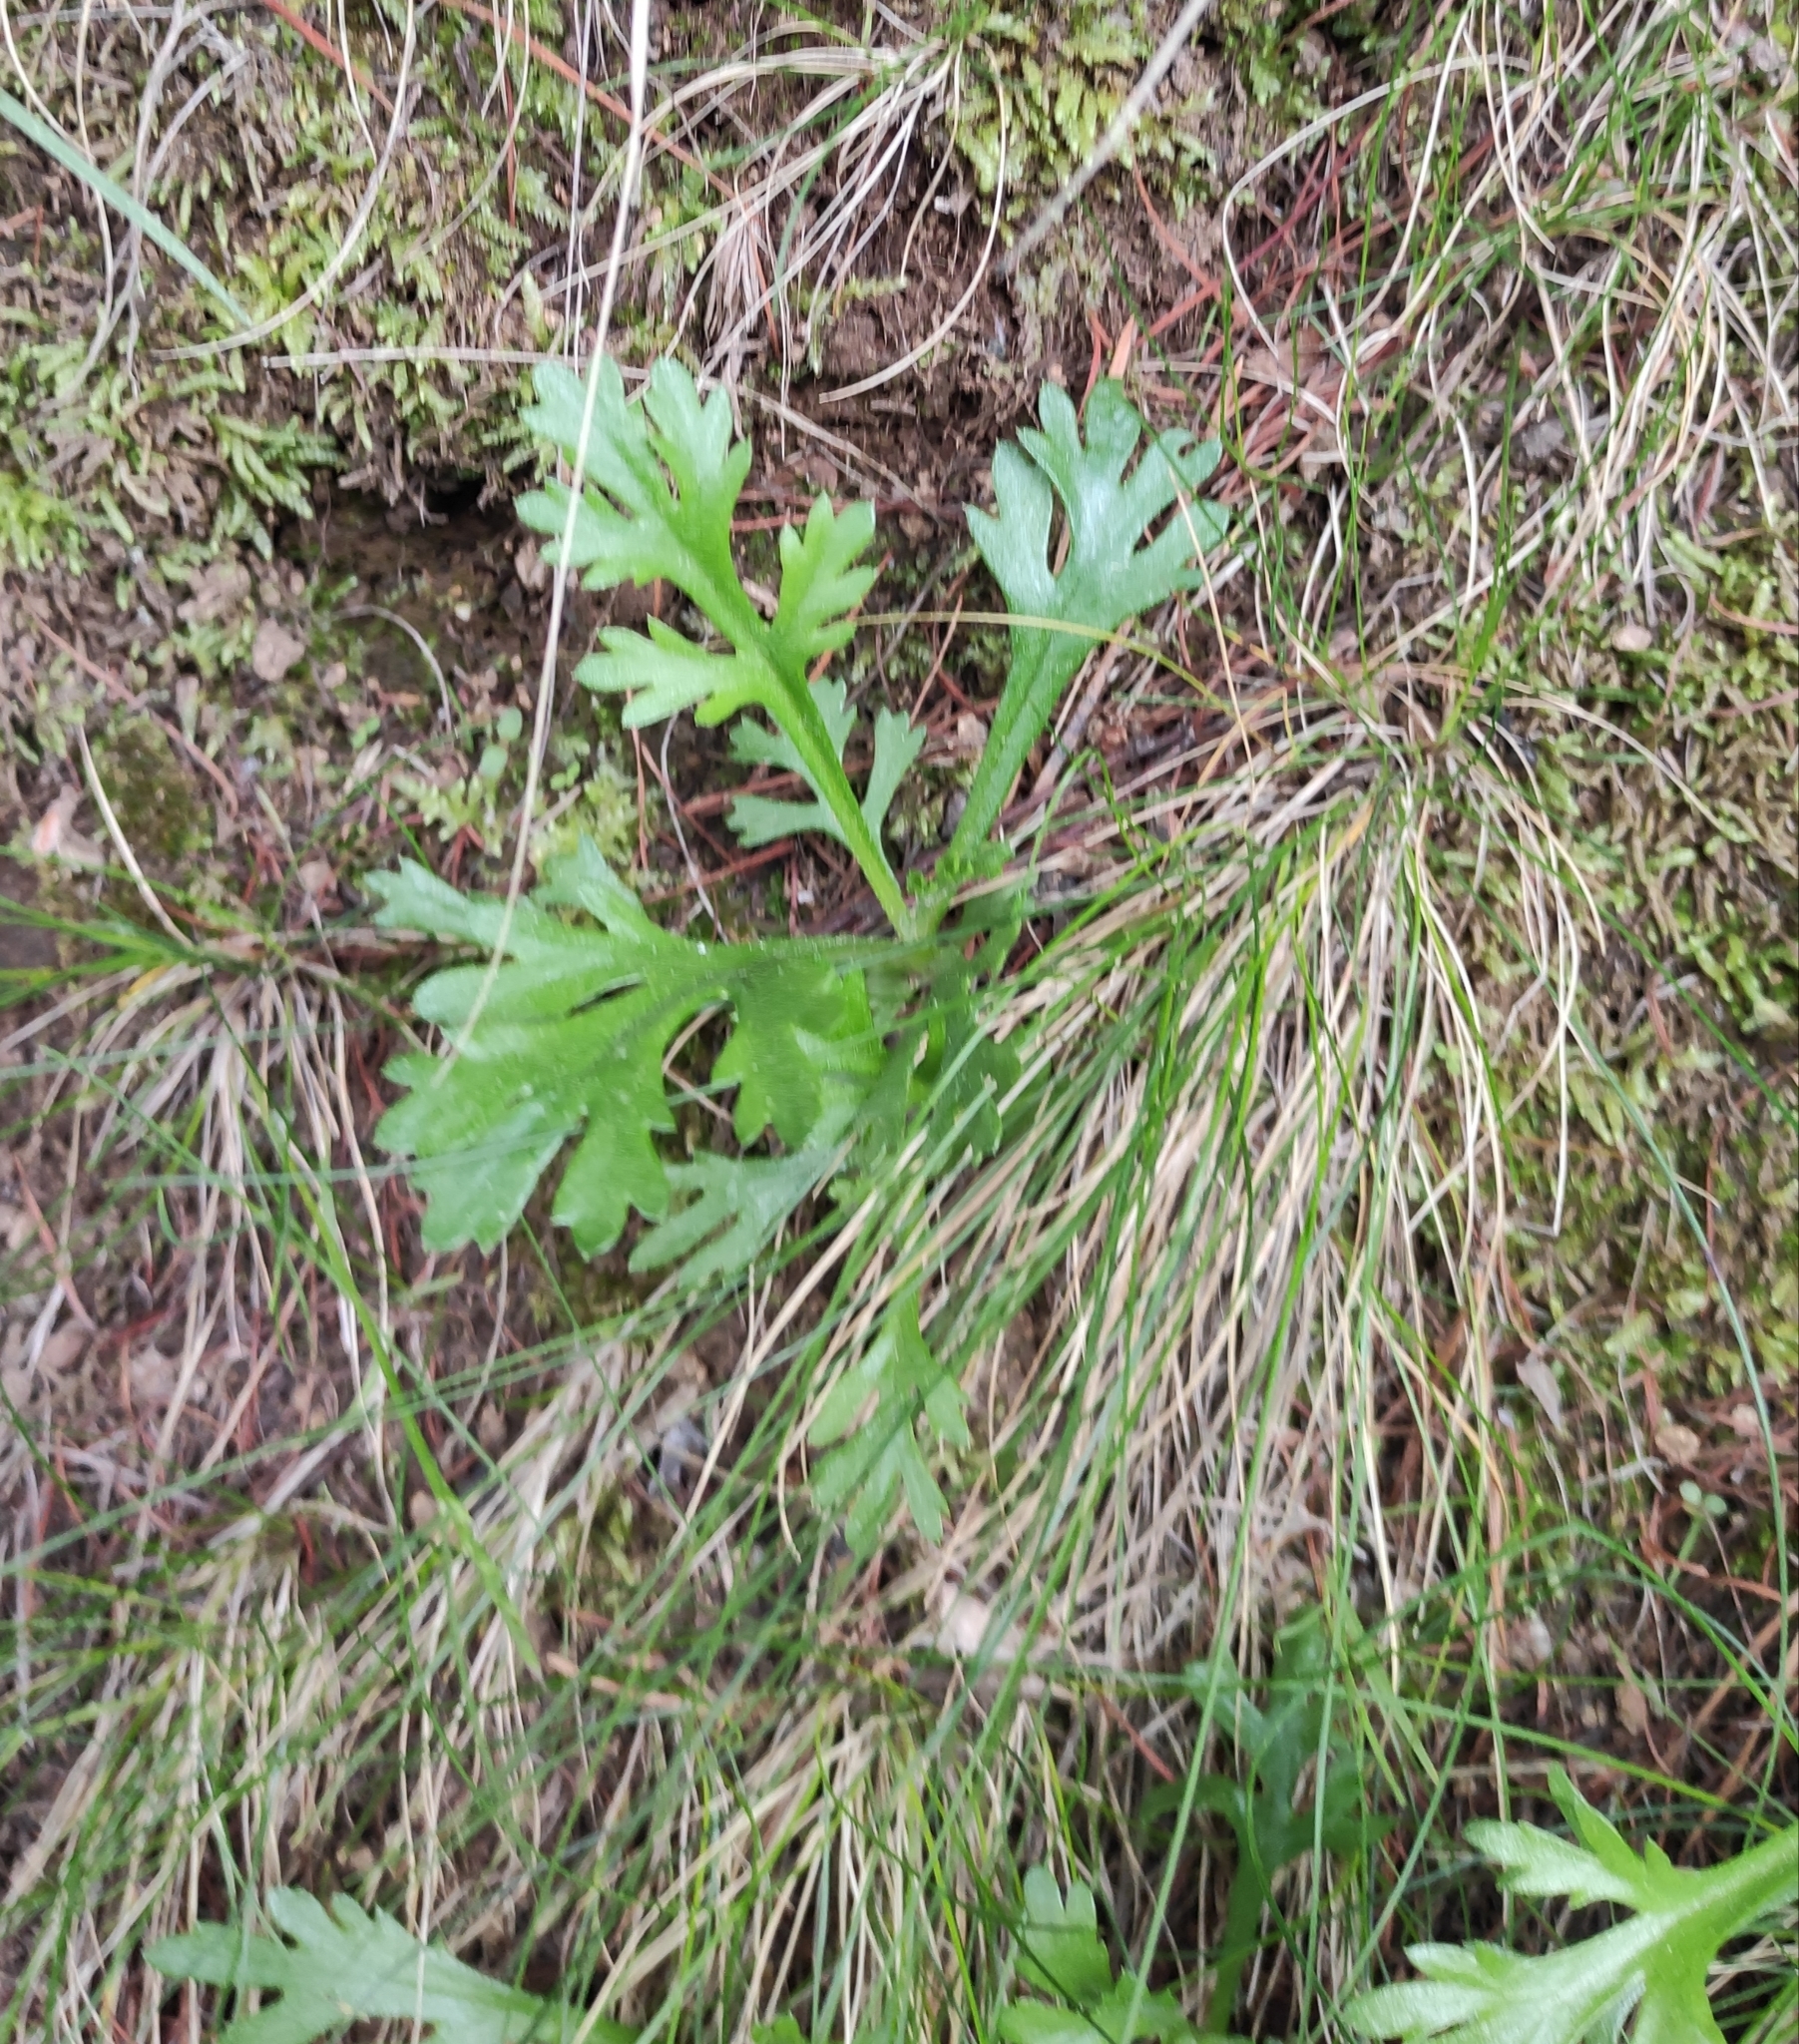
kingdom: Plantae
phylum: Tracheophyta
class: Magnoliopsida
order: Asterales
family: Asteraceae
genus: Chrysanthemum
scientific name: Chrysanthemum zawadzkii
